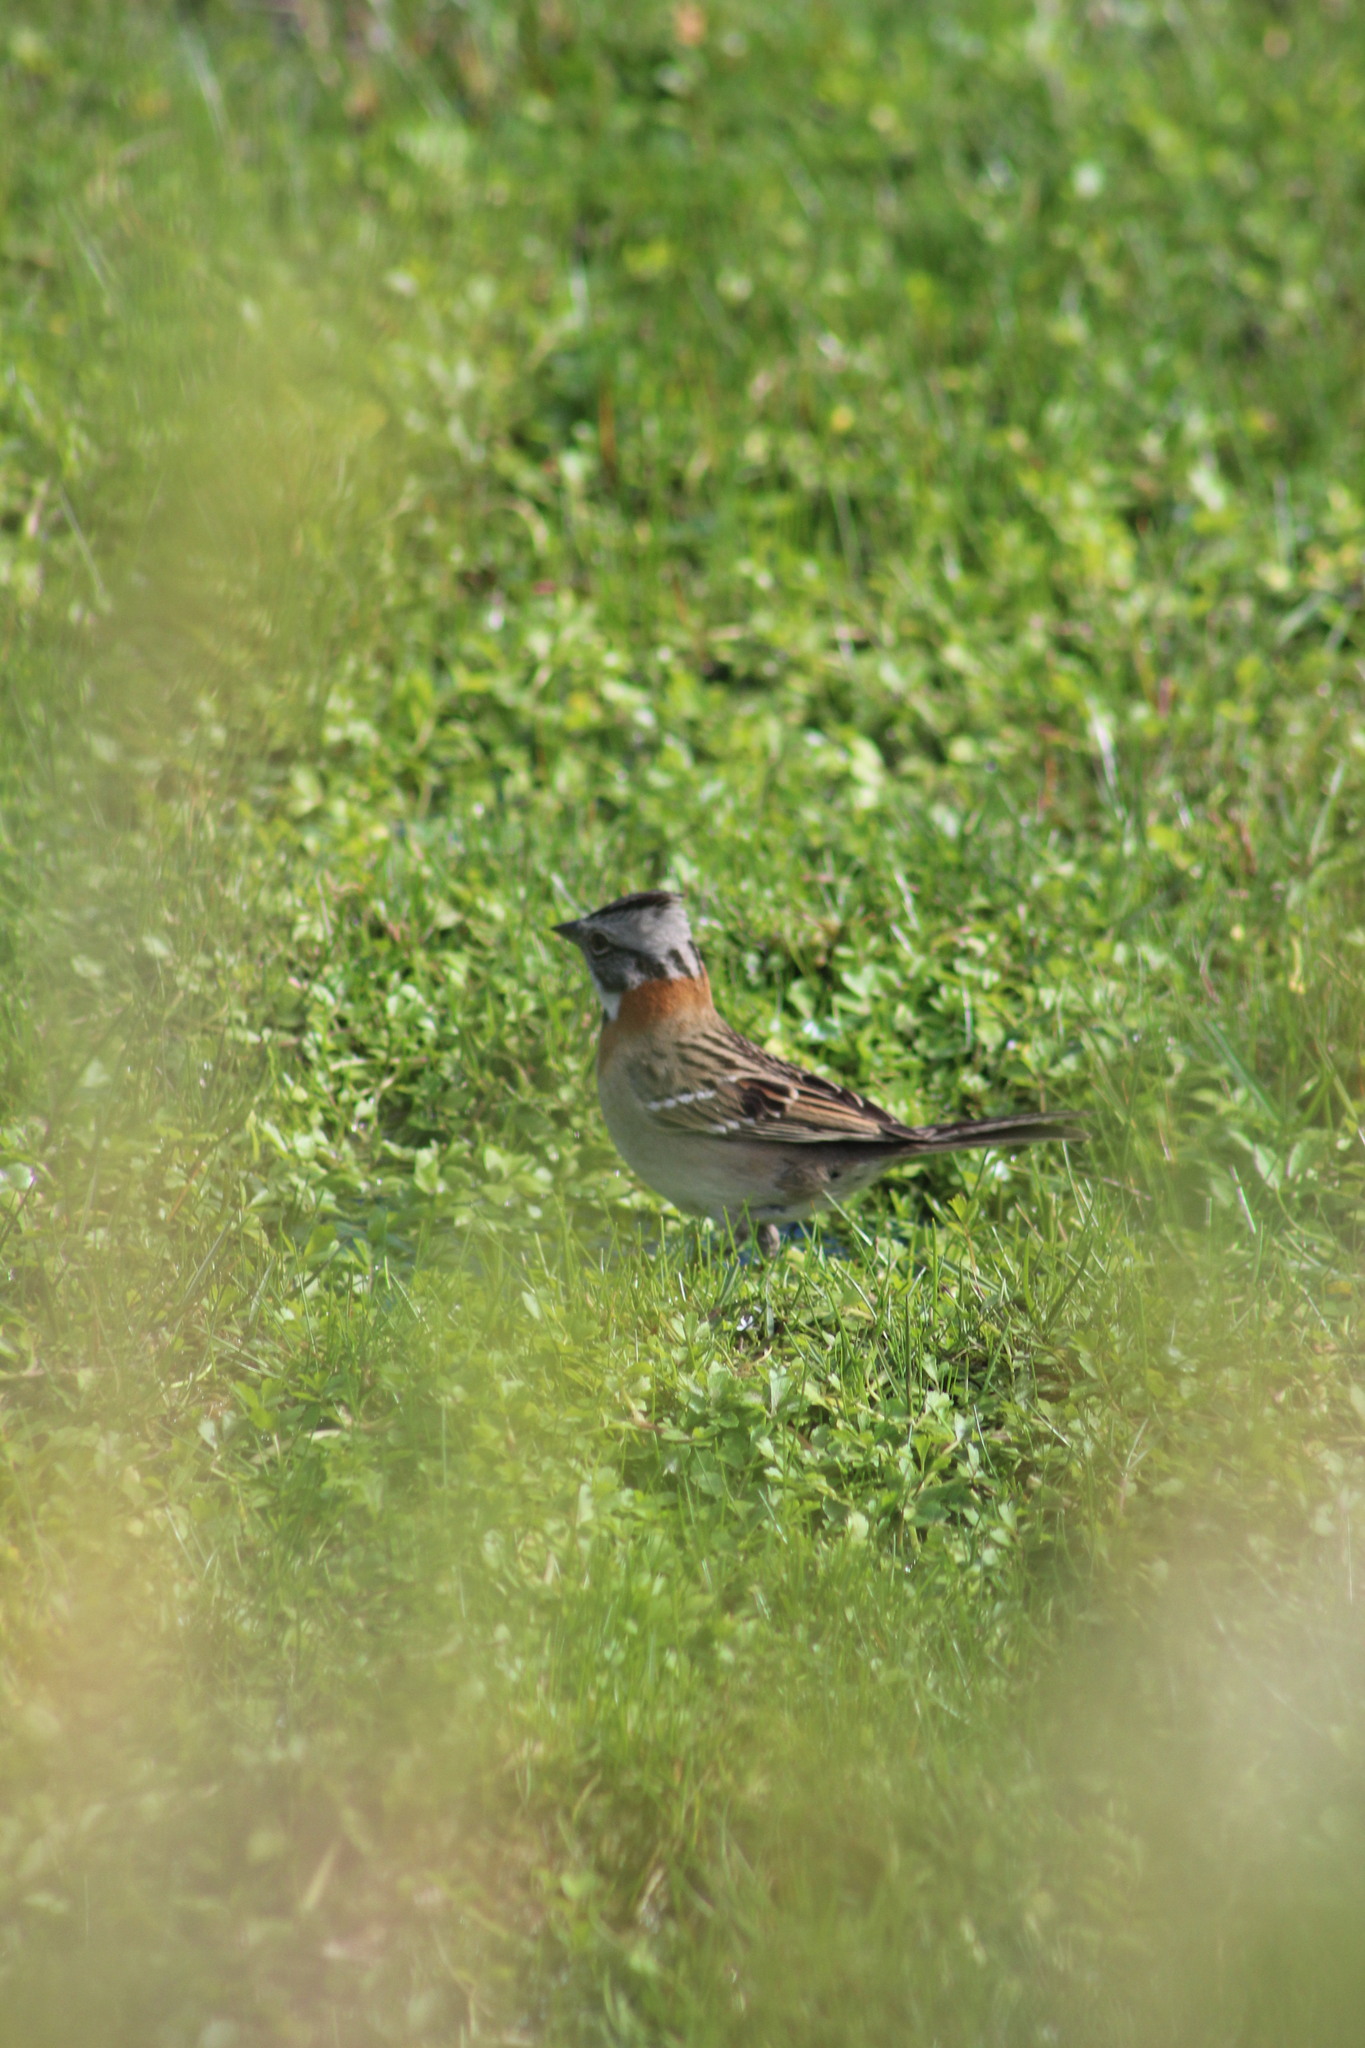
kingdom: Animalia
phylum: Chordata
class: Aves
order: Passeriformes
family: Passerellidae
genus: Zonotrichia
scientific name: Zonotrichia capensis
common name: Rufous-collared sparrow
